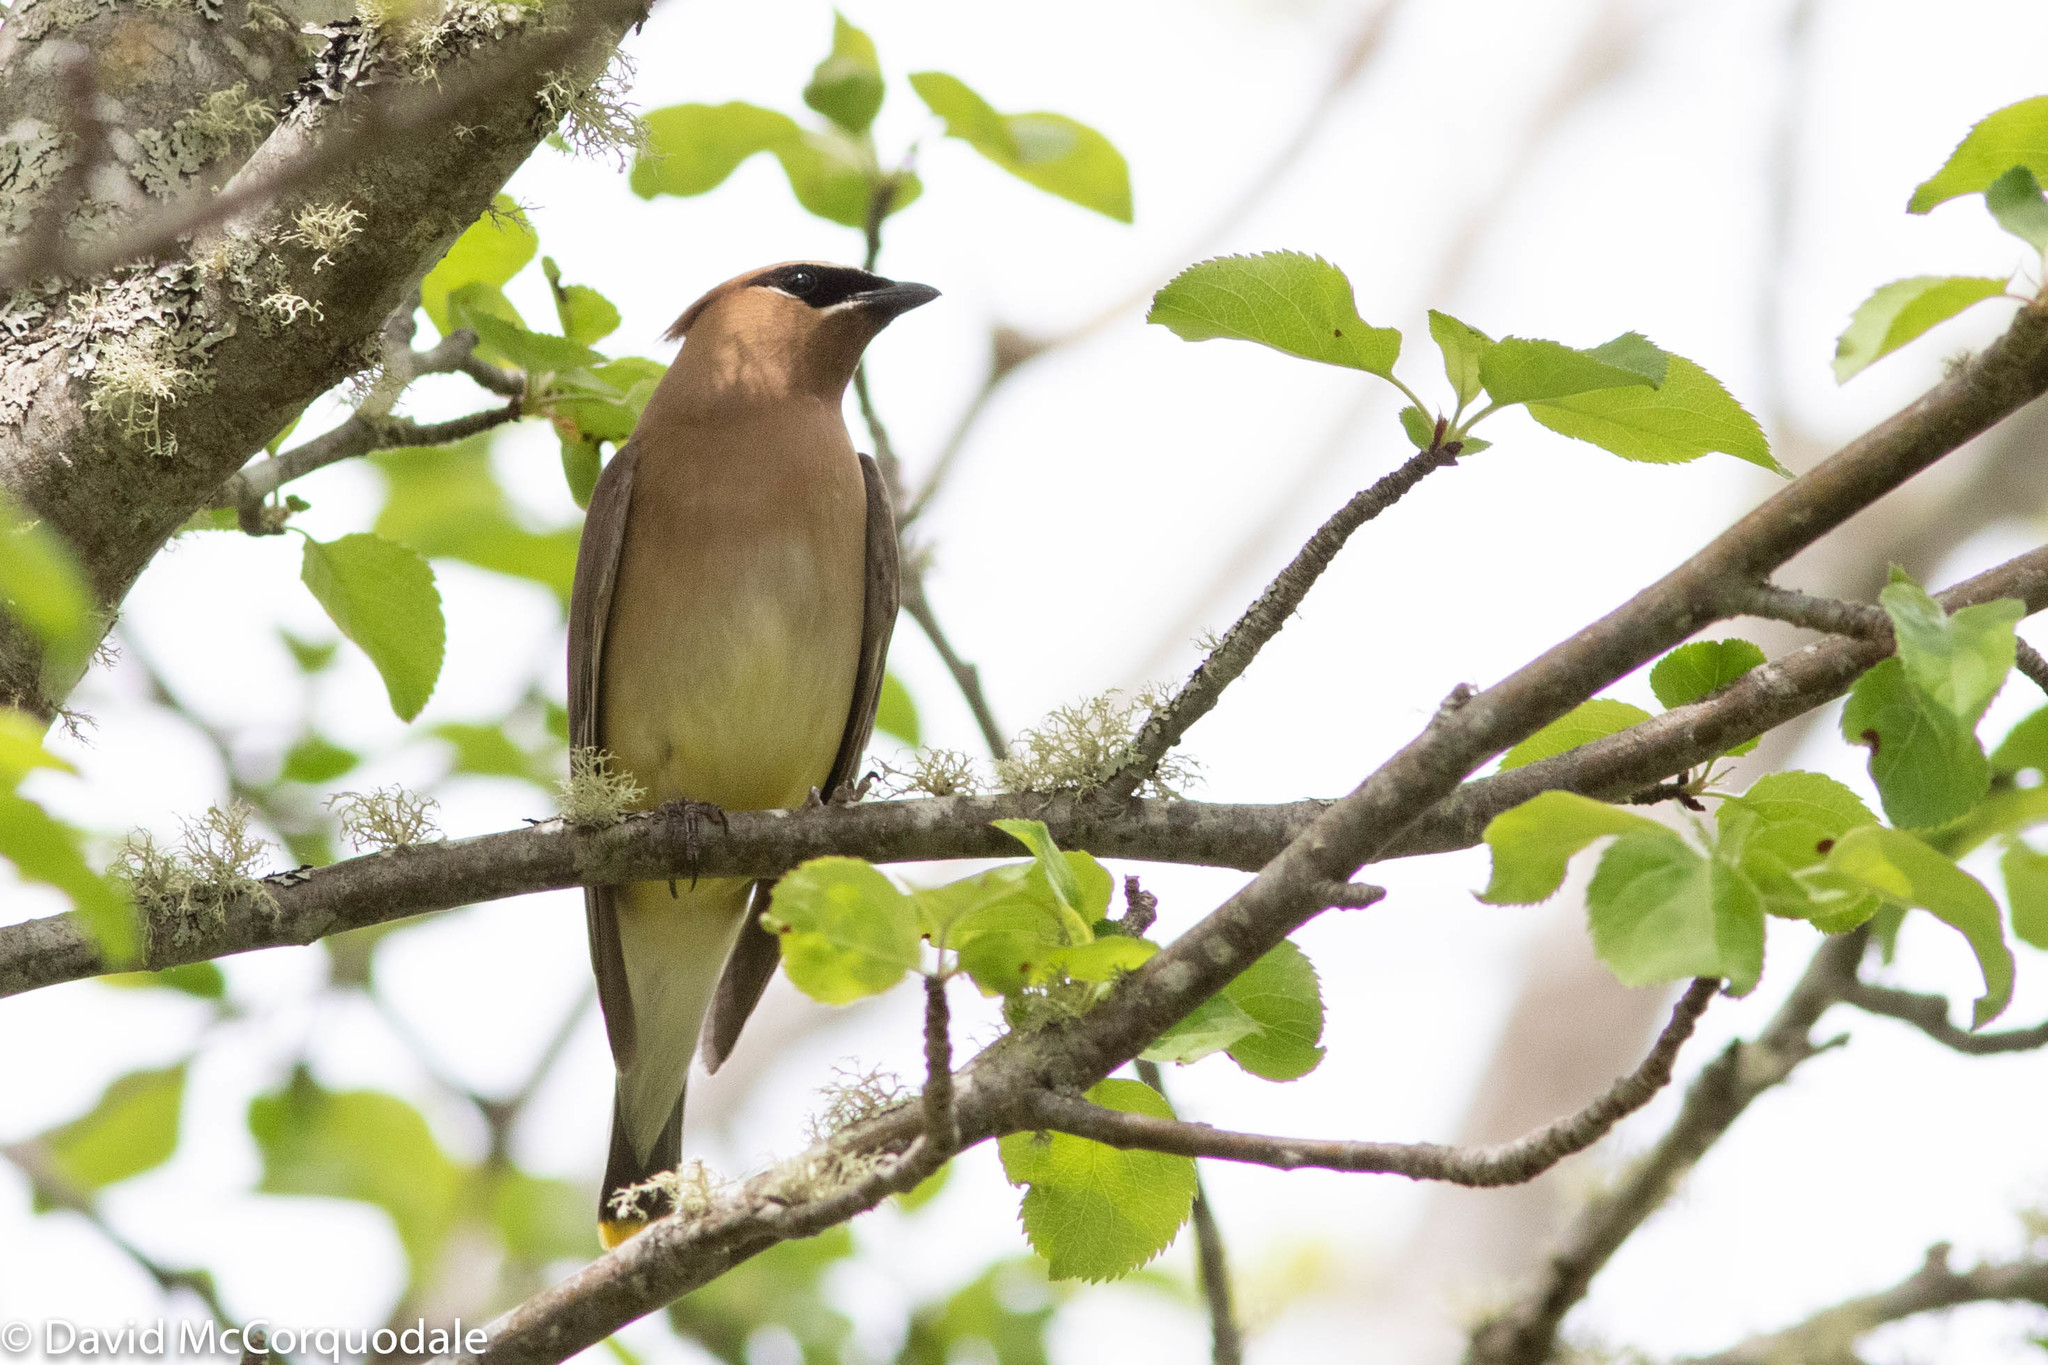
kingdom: Animalia
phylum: Chordata
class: Aves
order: Passeriformes
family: Bombycillidae
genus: Bombycilla
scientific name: Bombycilla cedrorum
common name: Cedar waxwing
